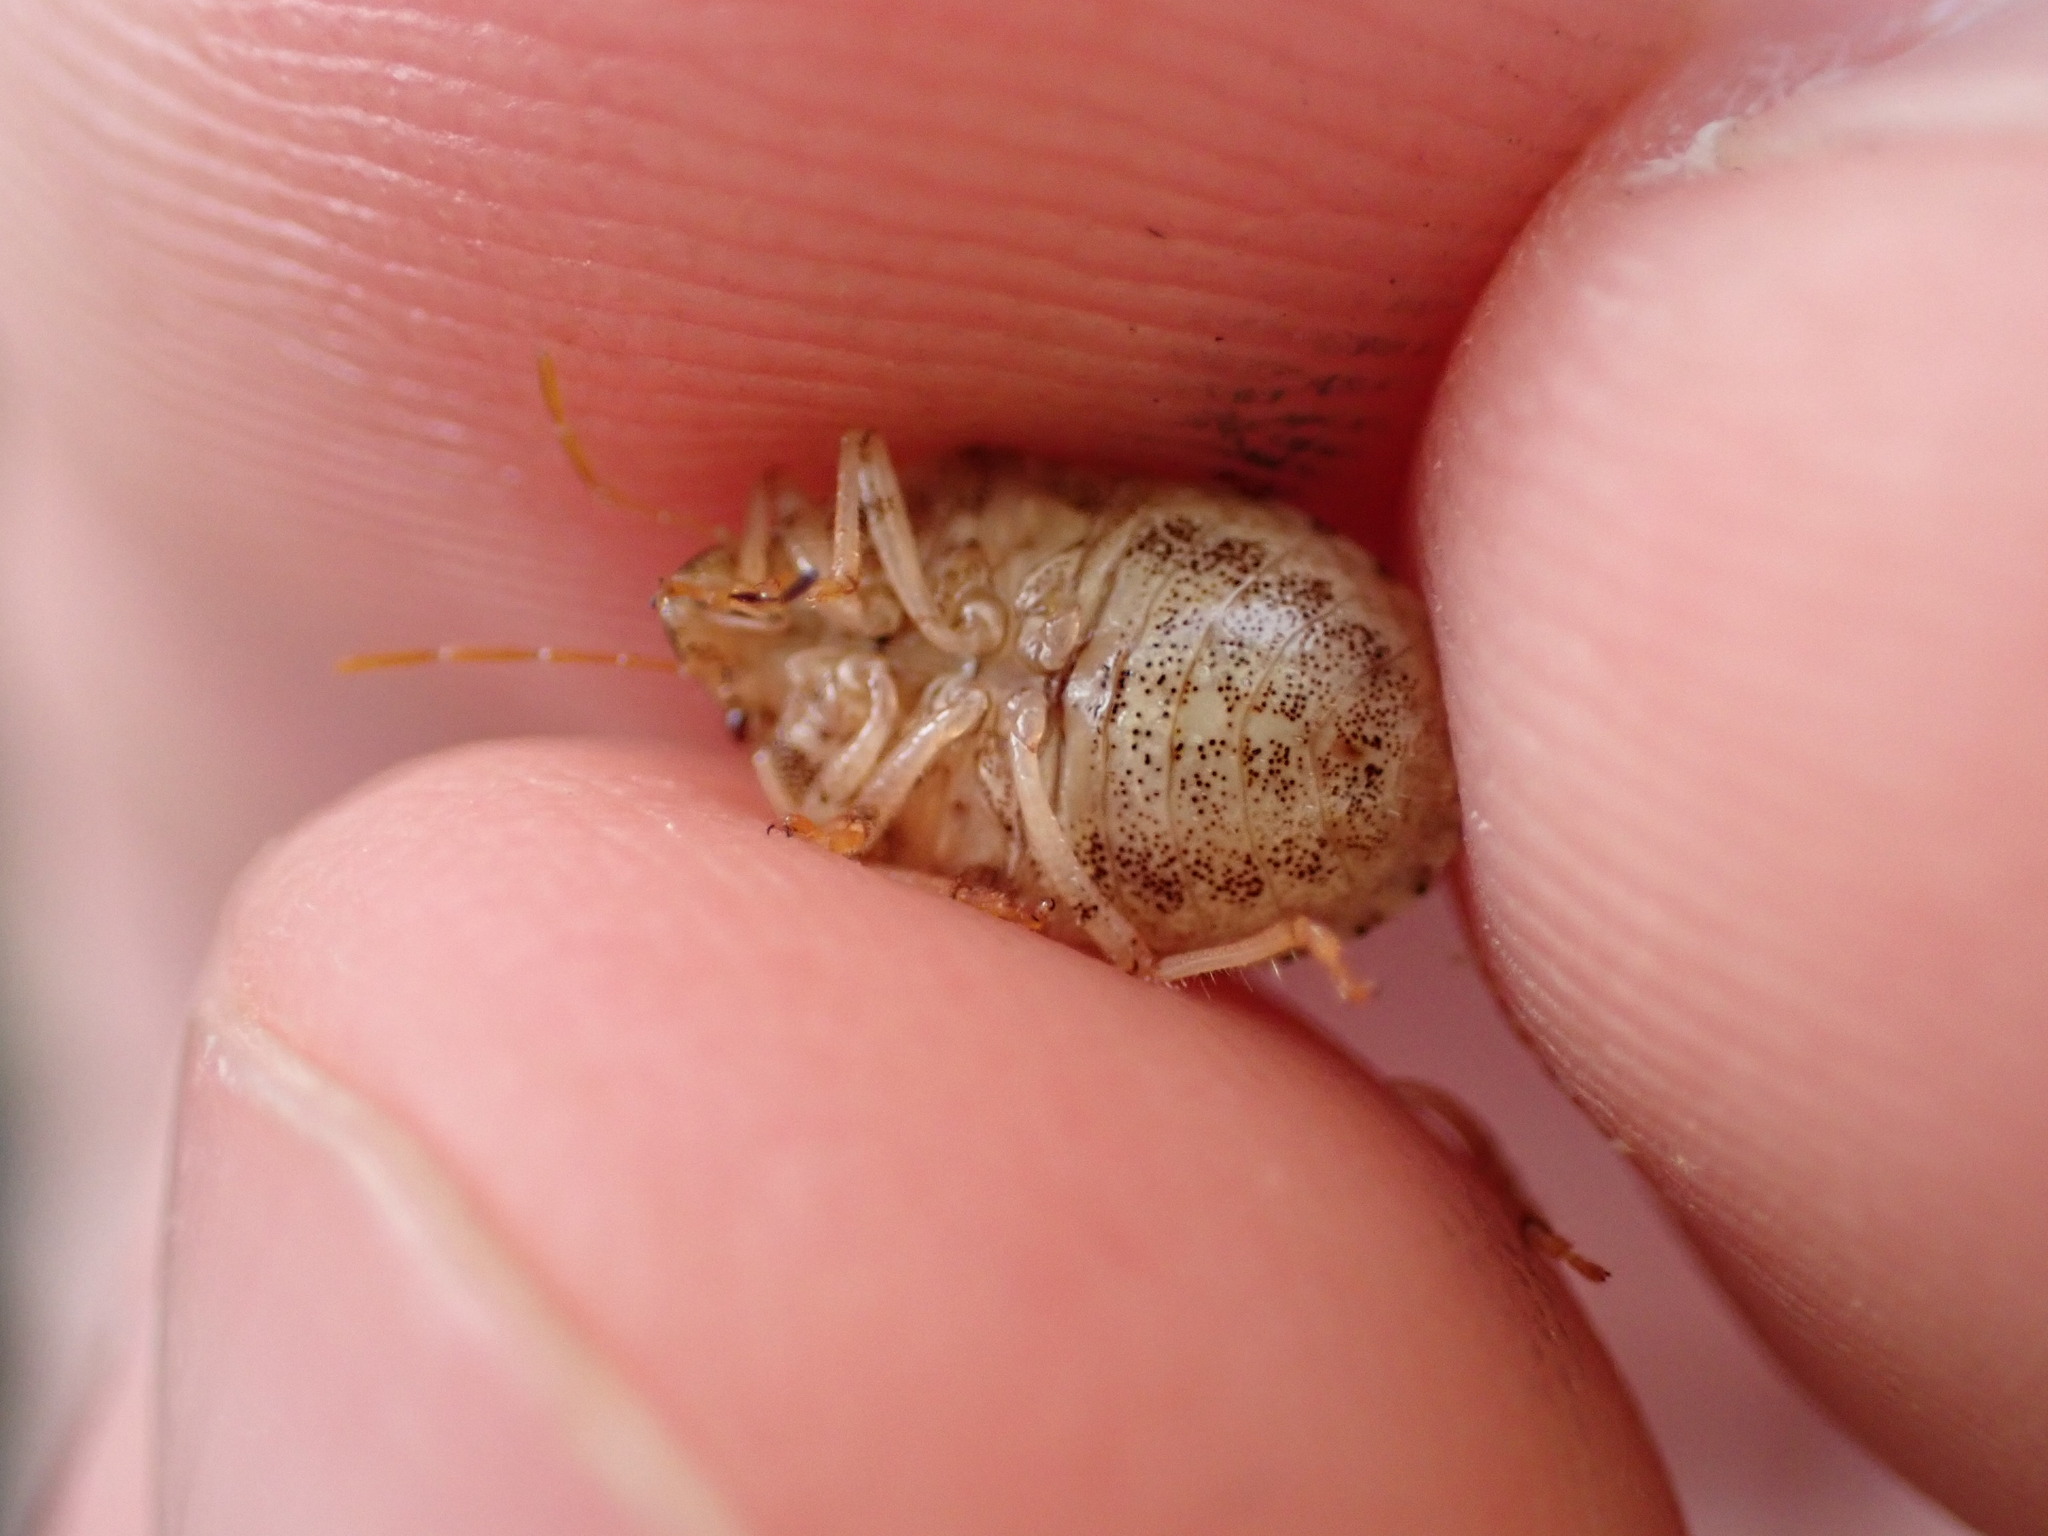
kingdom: Animalia
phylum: Arthropoda
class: Insecta
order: Hemiptera
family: Pentatomidae
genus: Staria
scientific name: Staria lunata
